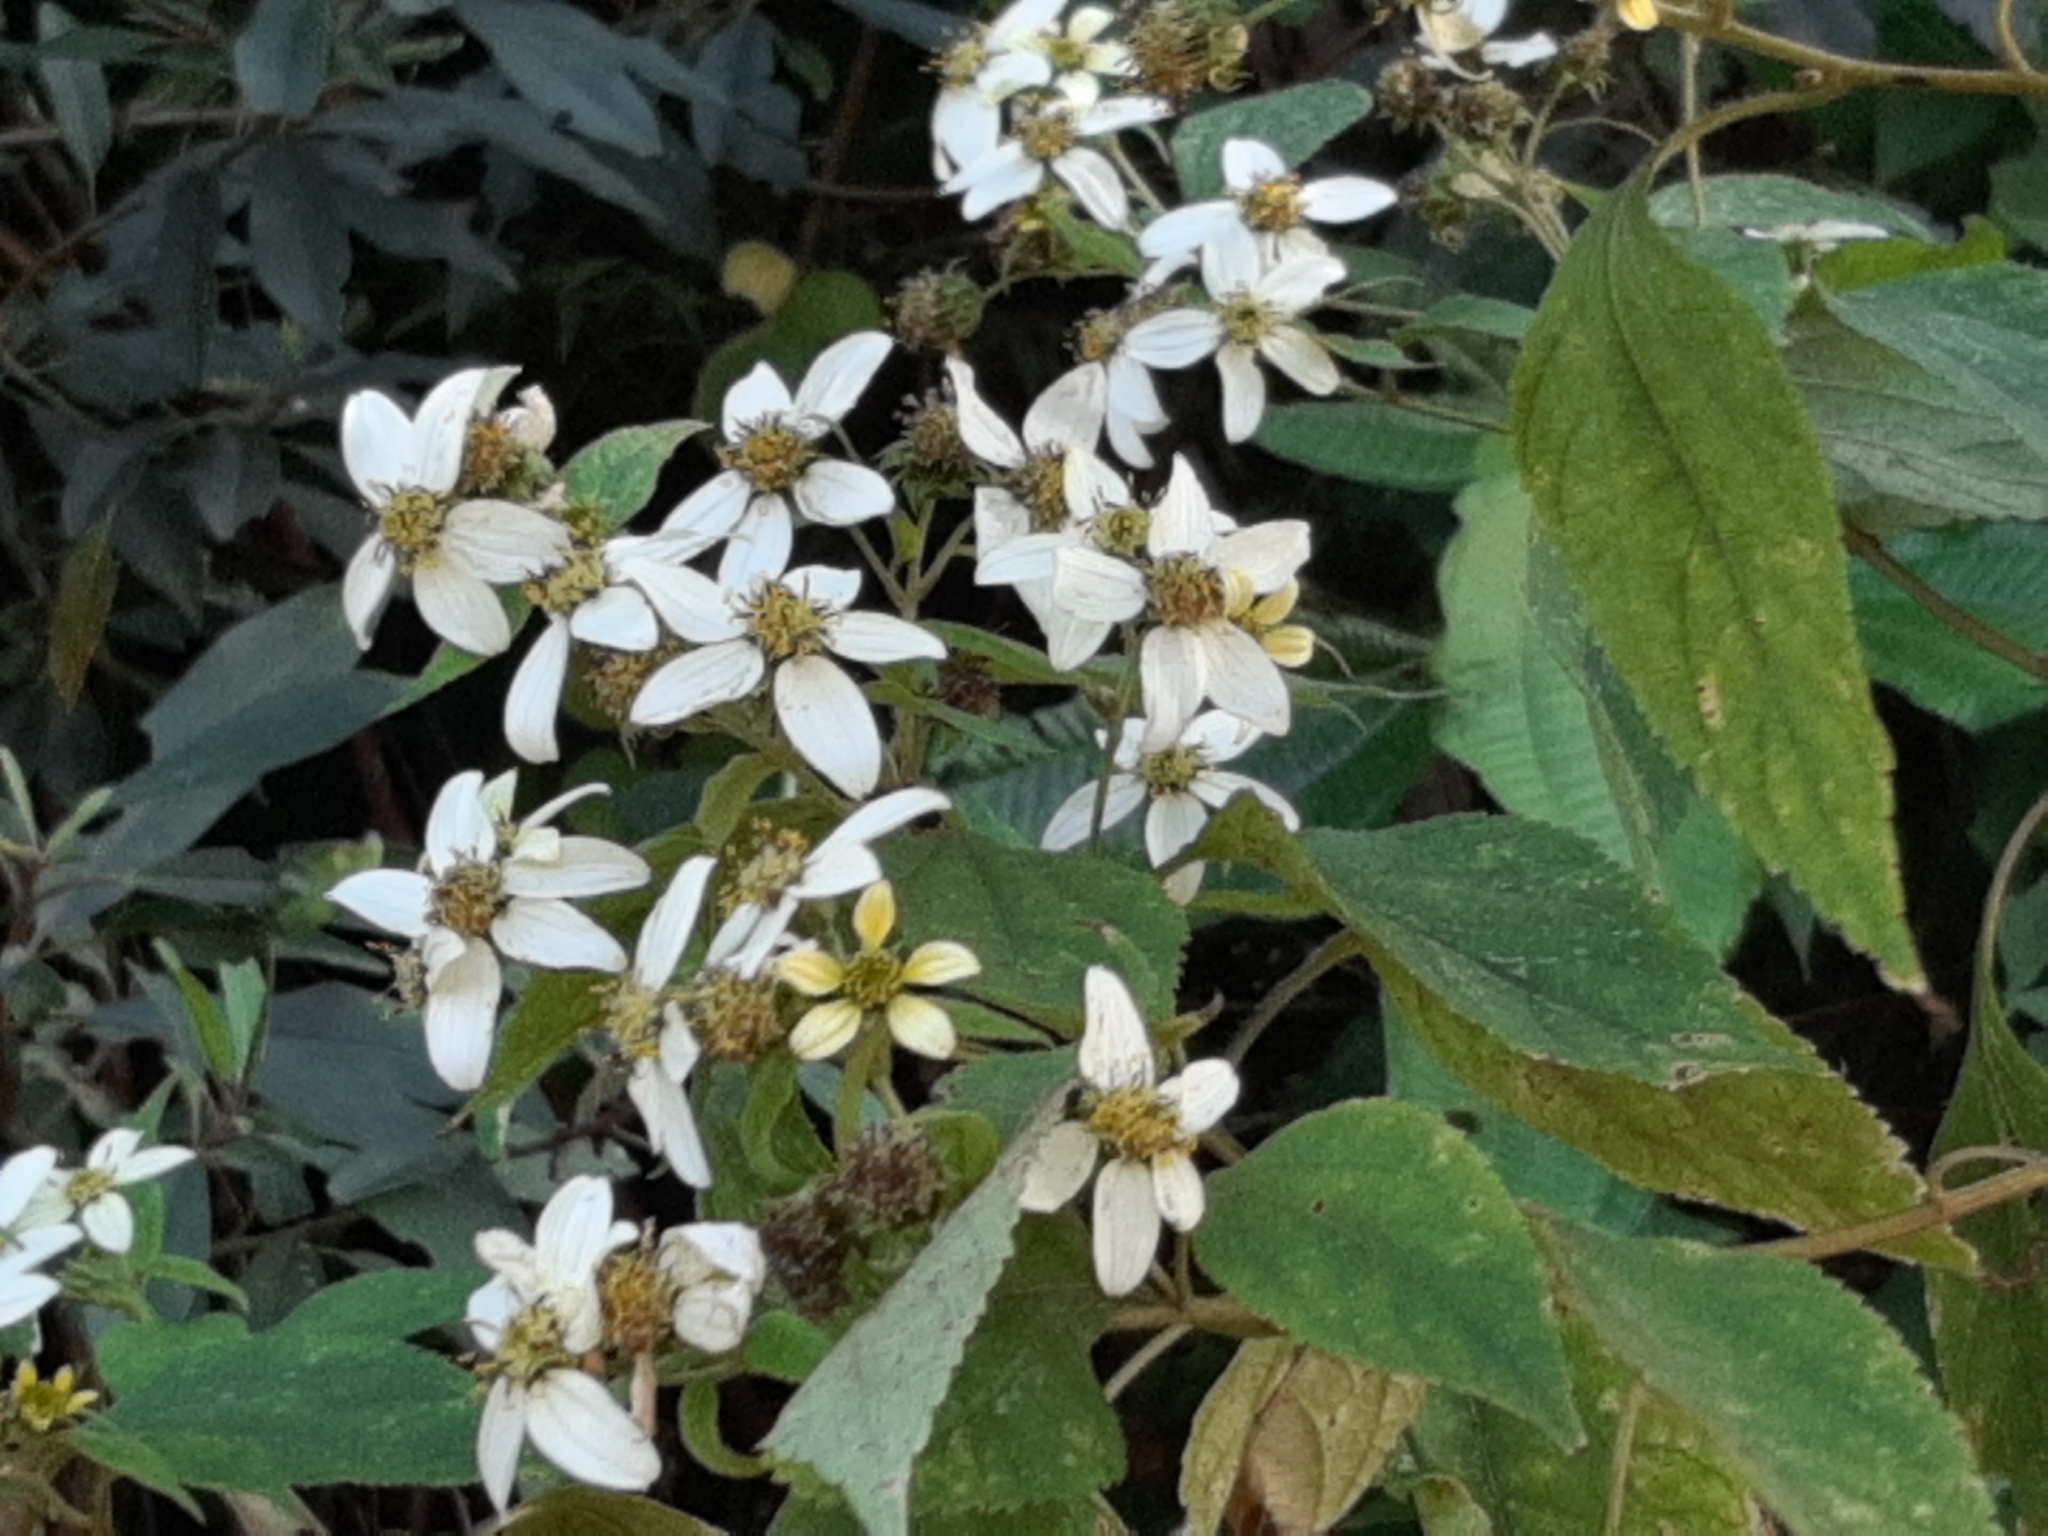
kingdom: Plantae
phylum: Tracheophyta
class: Magnoliopsida
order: Asterales
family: Asteraceae
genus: Montanoa
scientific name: Montanoa guatemalensis
